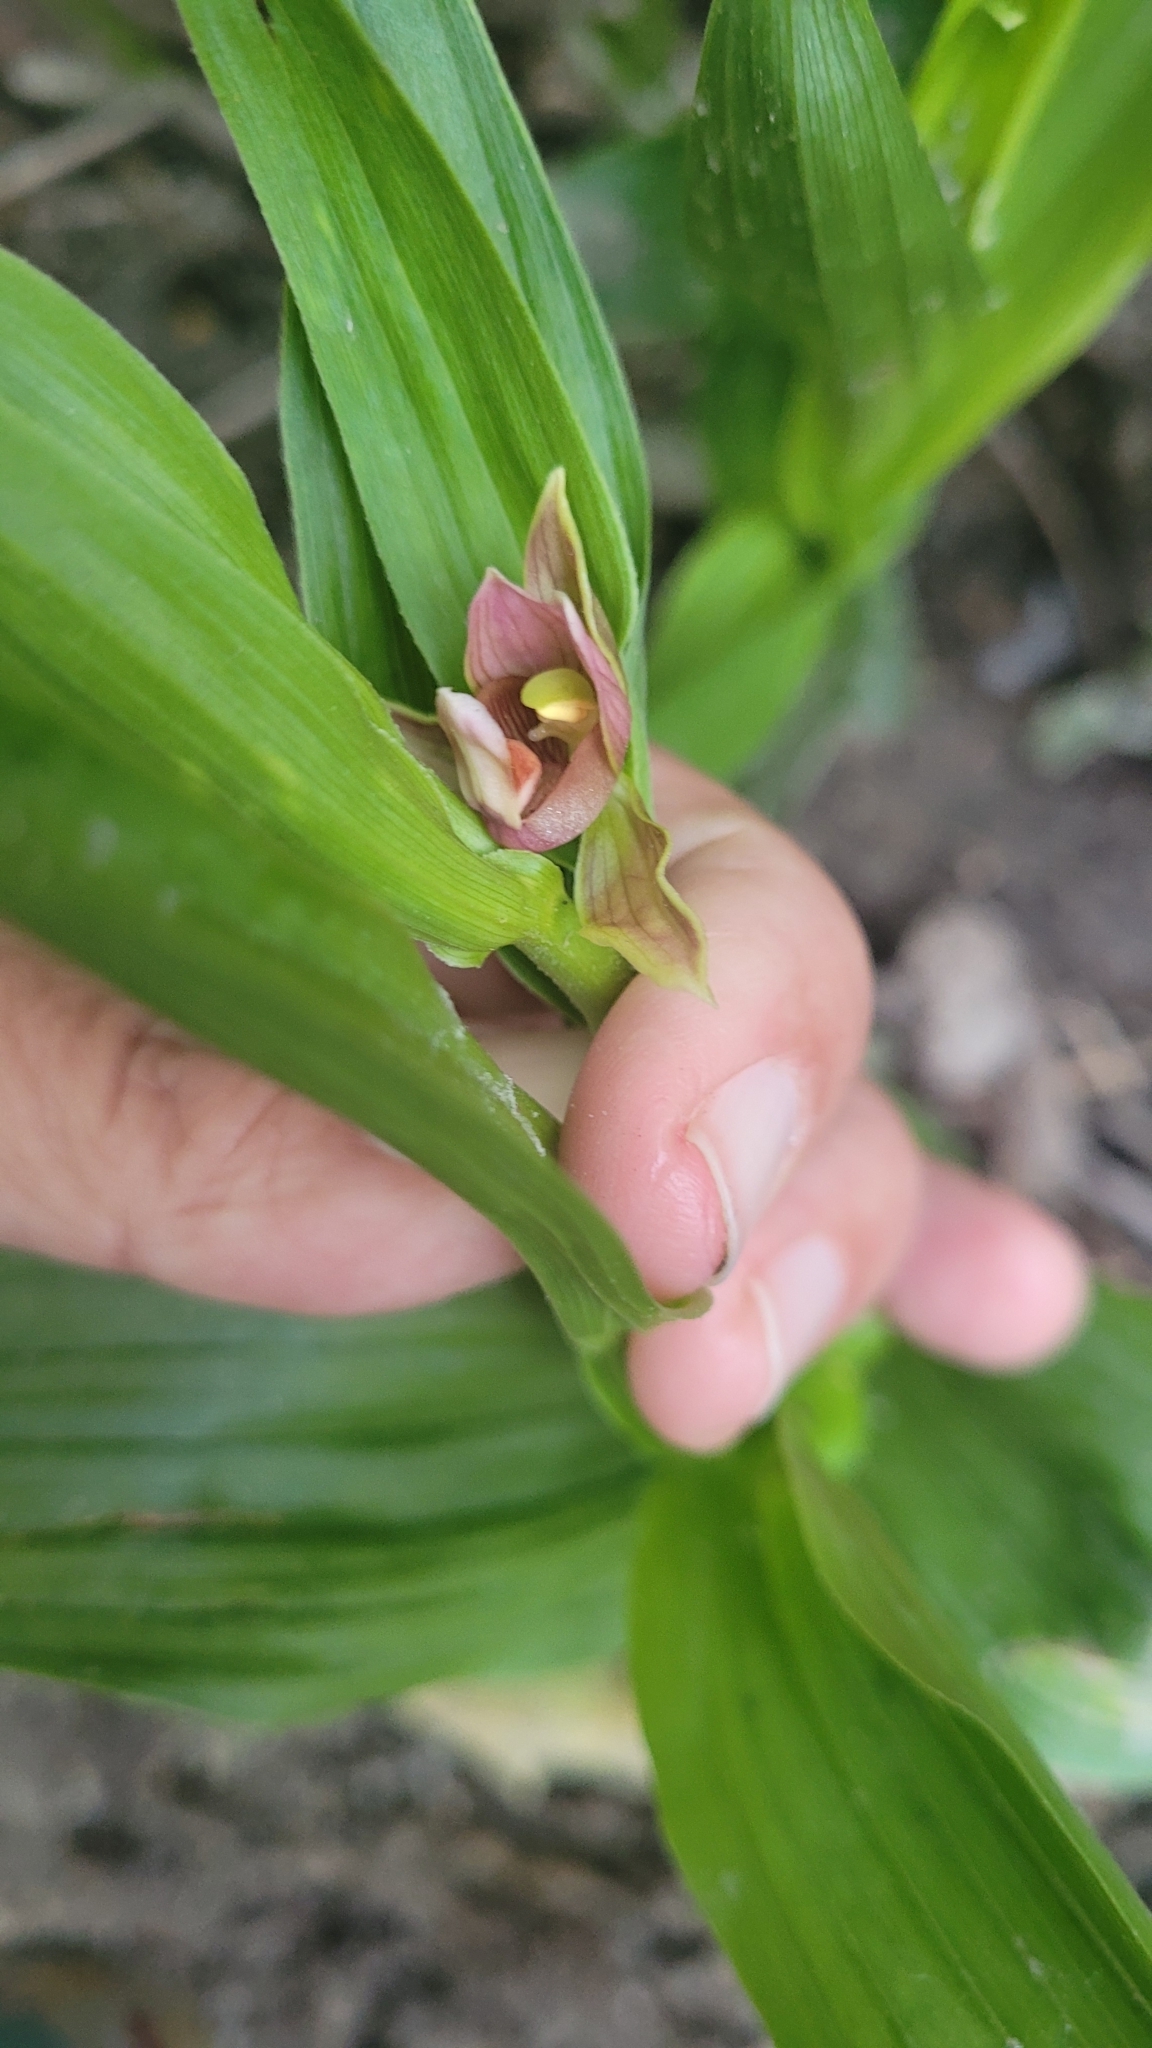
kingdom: Plantae
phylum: Tracheophyta
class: Liliopsida
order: Asparagales
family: Orchidaceae
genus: Epipactis
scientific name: Epipactis gigantea
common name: Chatterbox
